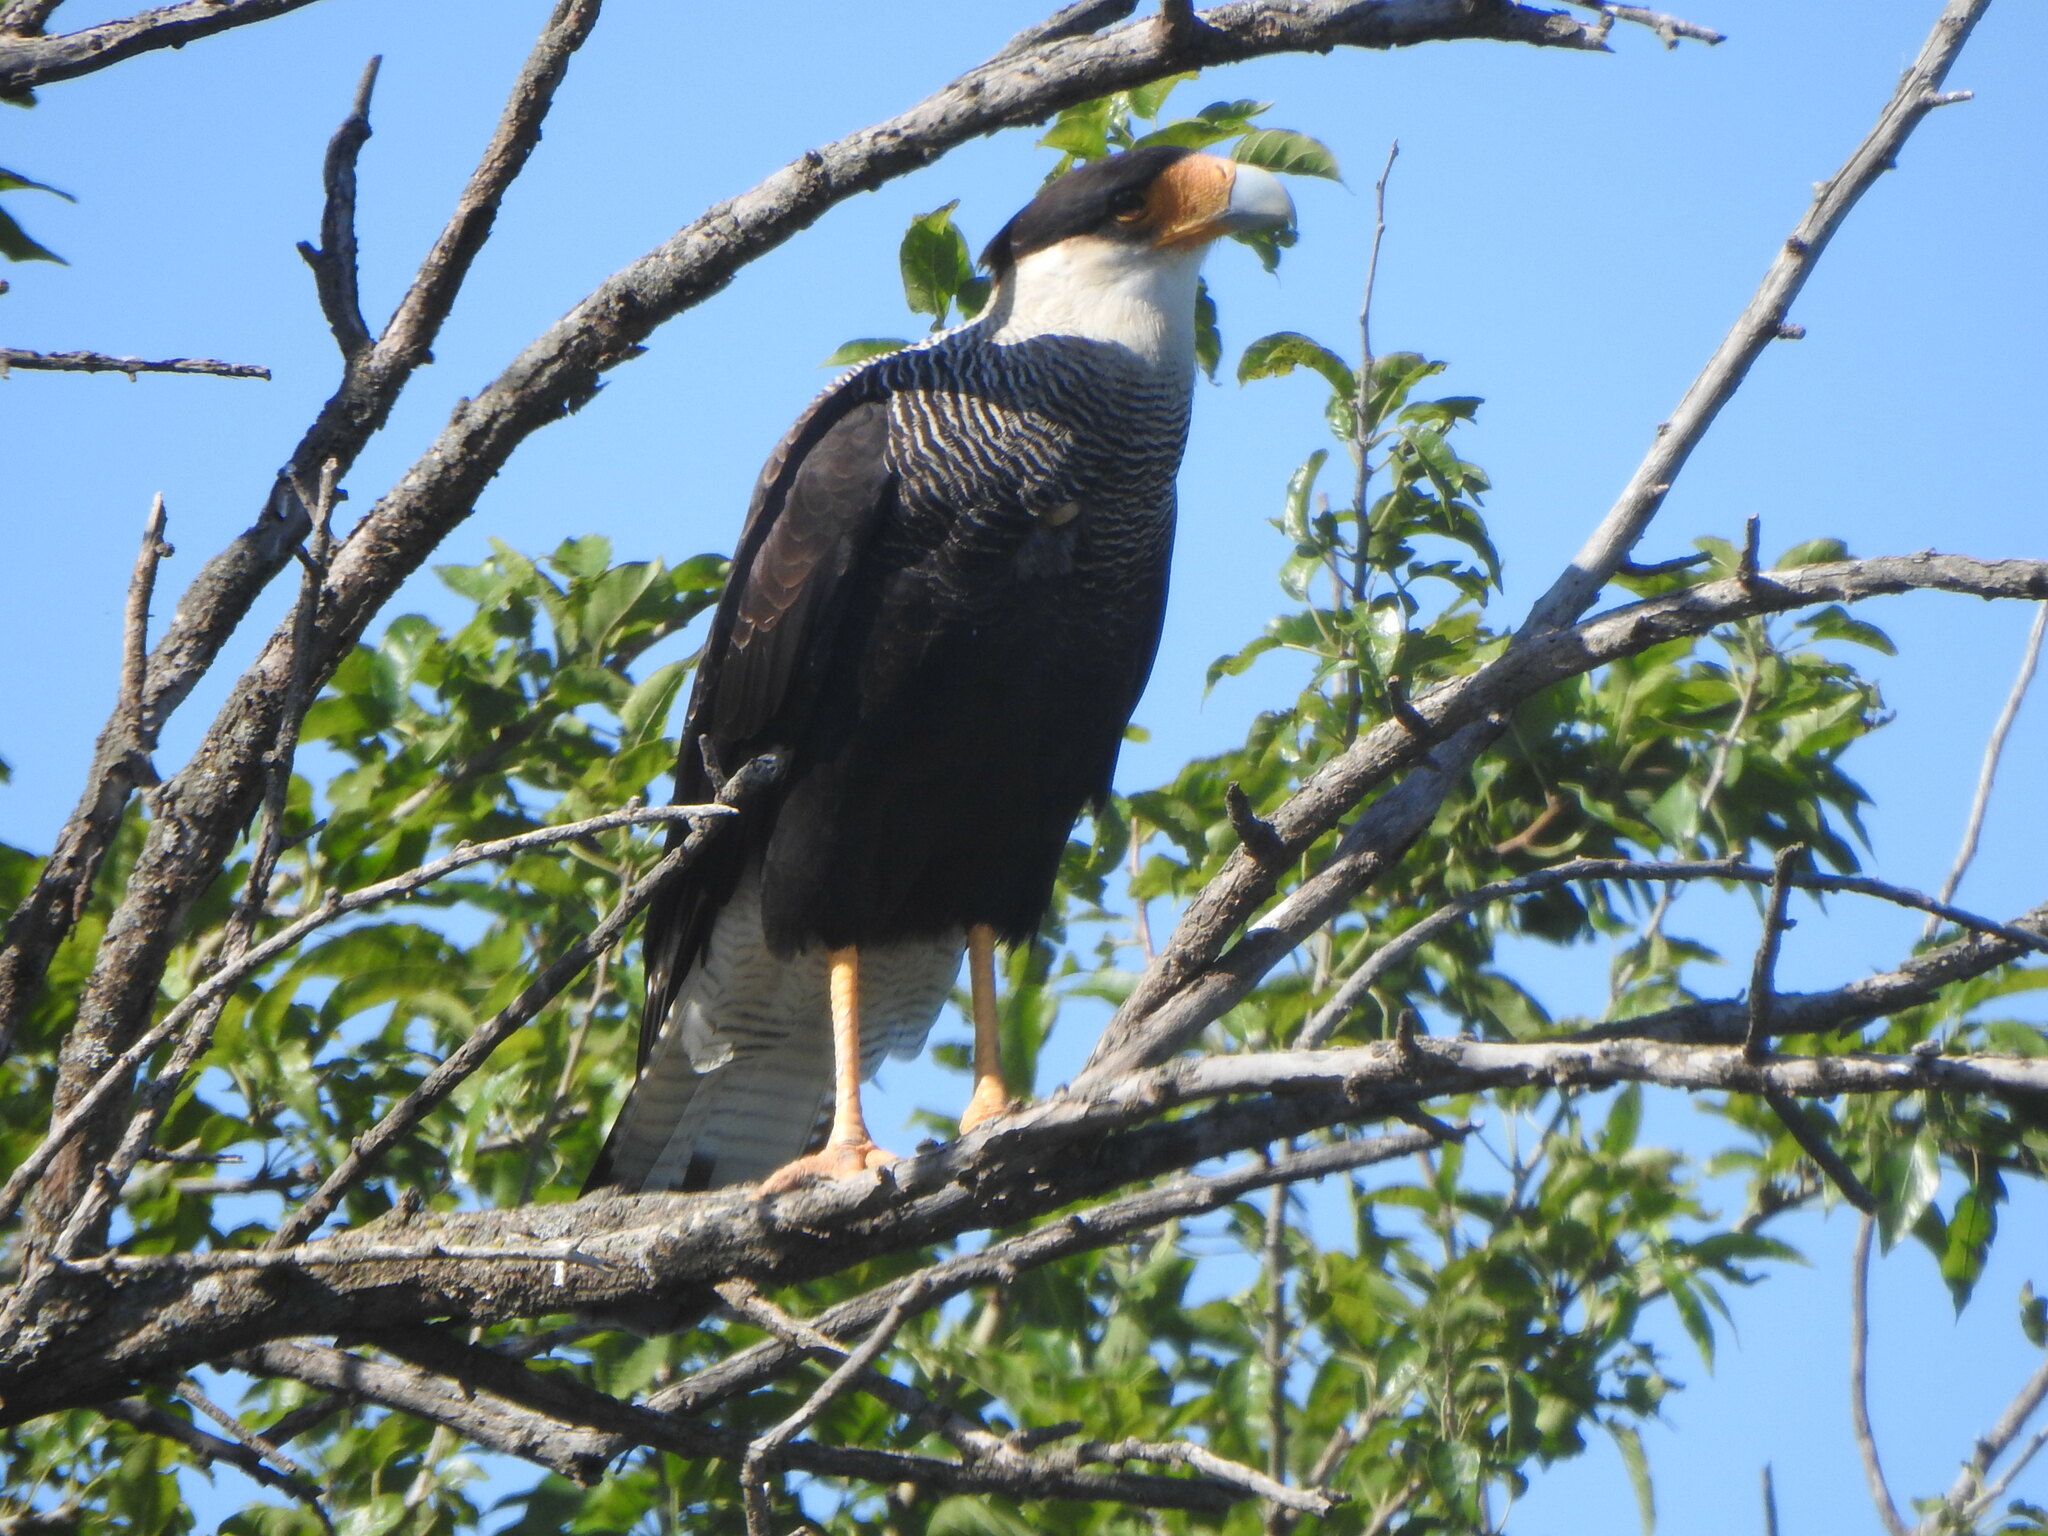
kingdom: Animalia
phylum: Chordata
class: Aves
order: Falconiformes
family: Falconidae
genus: Caracara
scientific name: Caracara plancus
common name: Southern caracara
